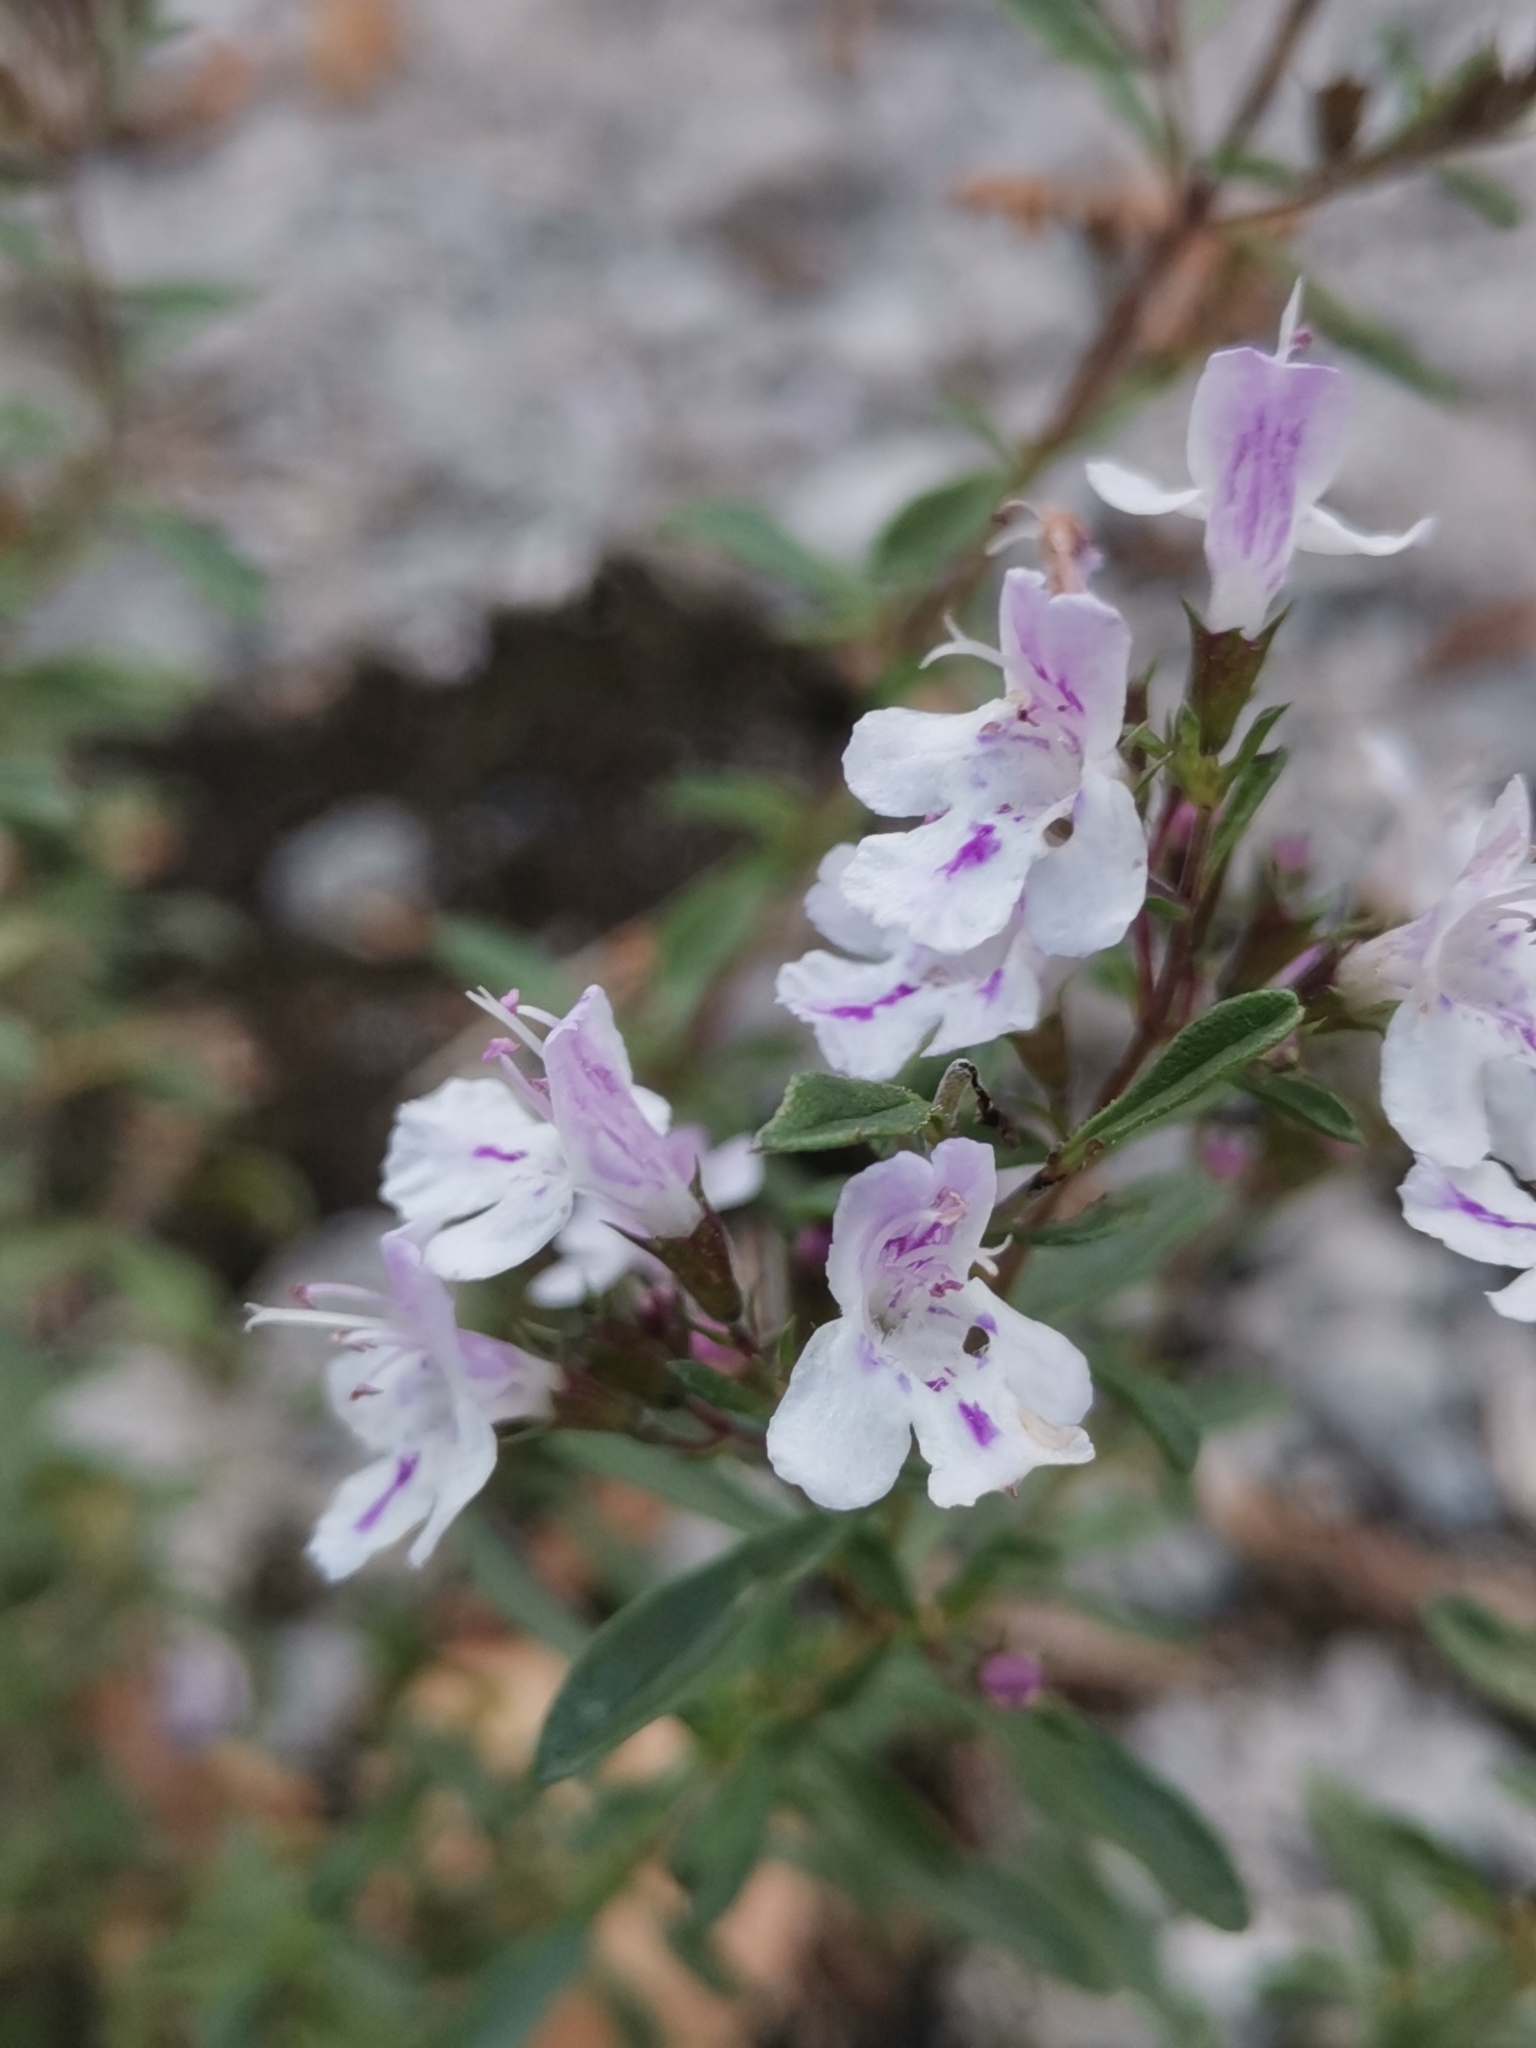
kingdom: Plantae
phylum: Tracheophyta
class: Magnoliopsida
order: Lamiales
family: Lamiaceae
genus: Satureja
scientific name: Satureja montana
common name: Winter savory
